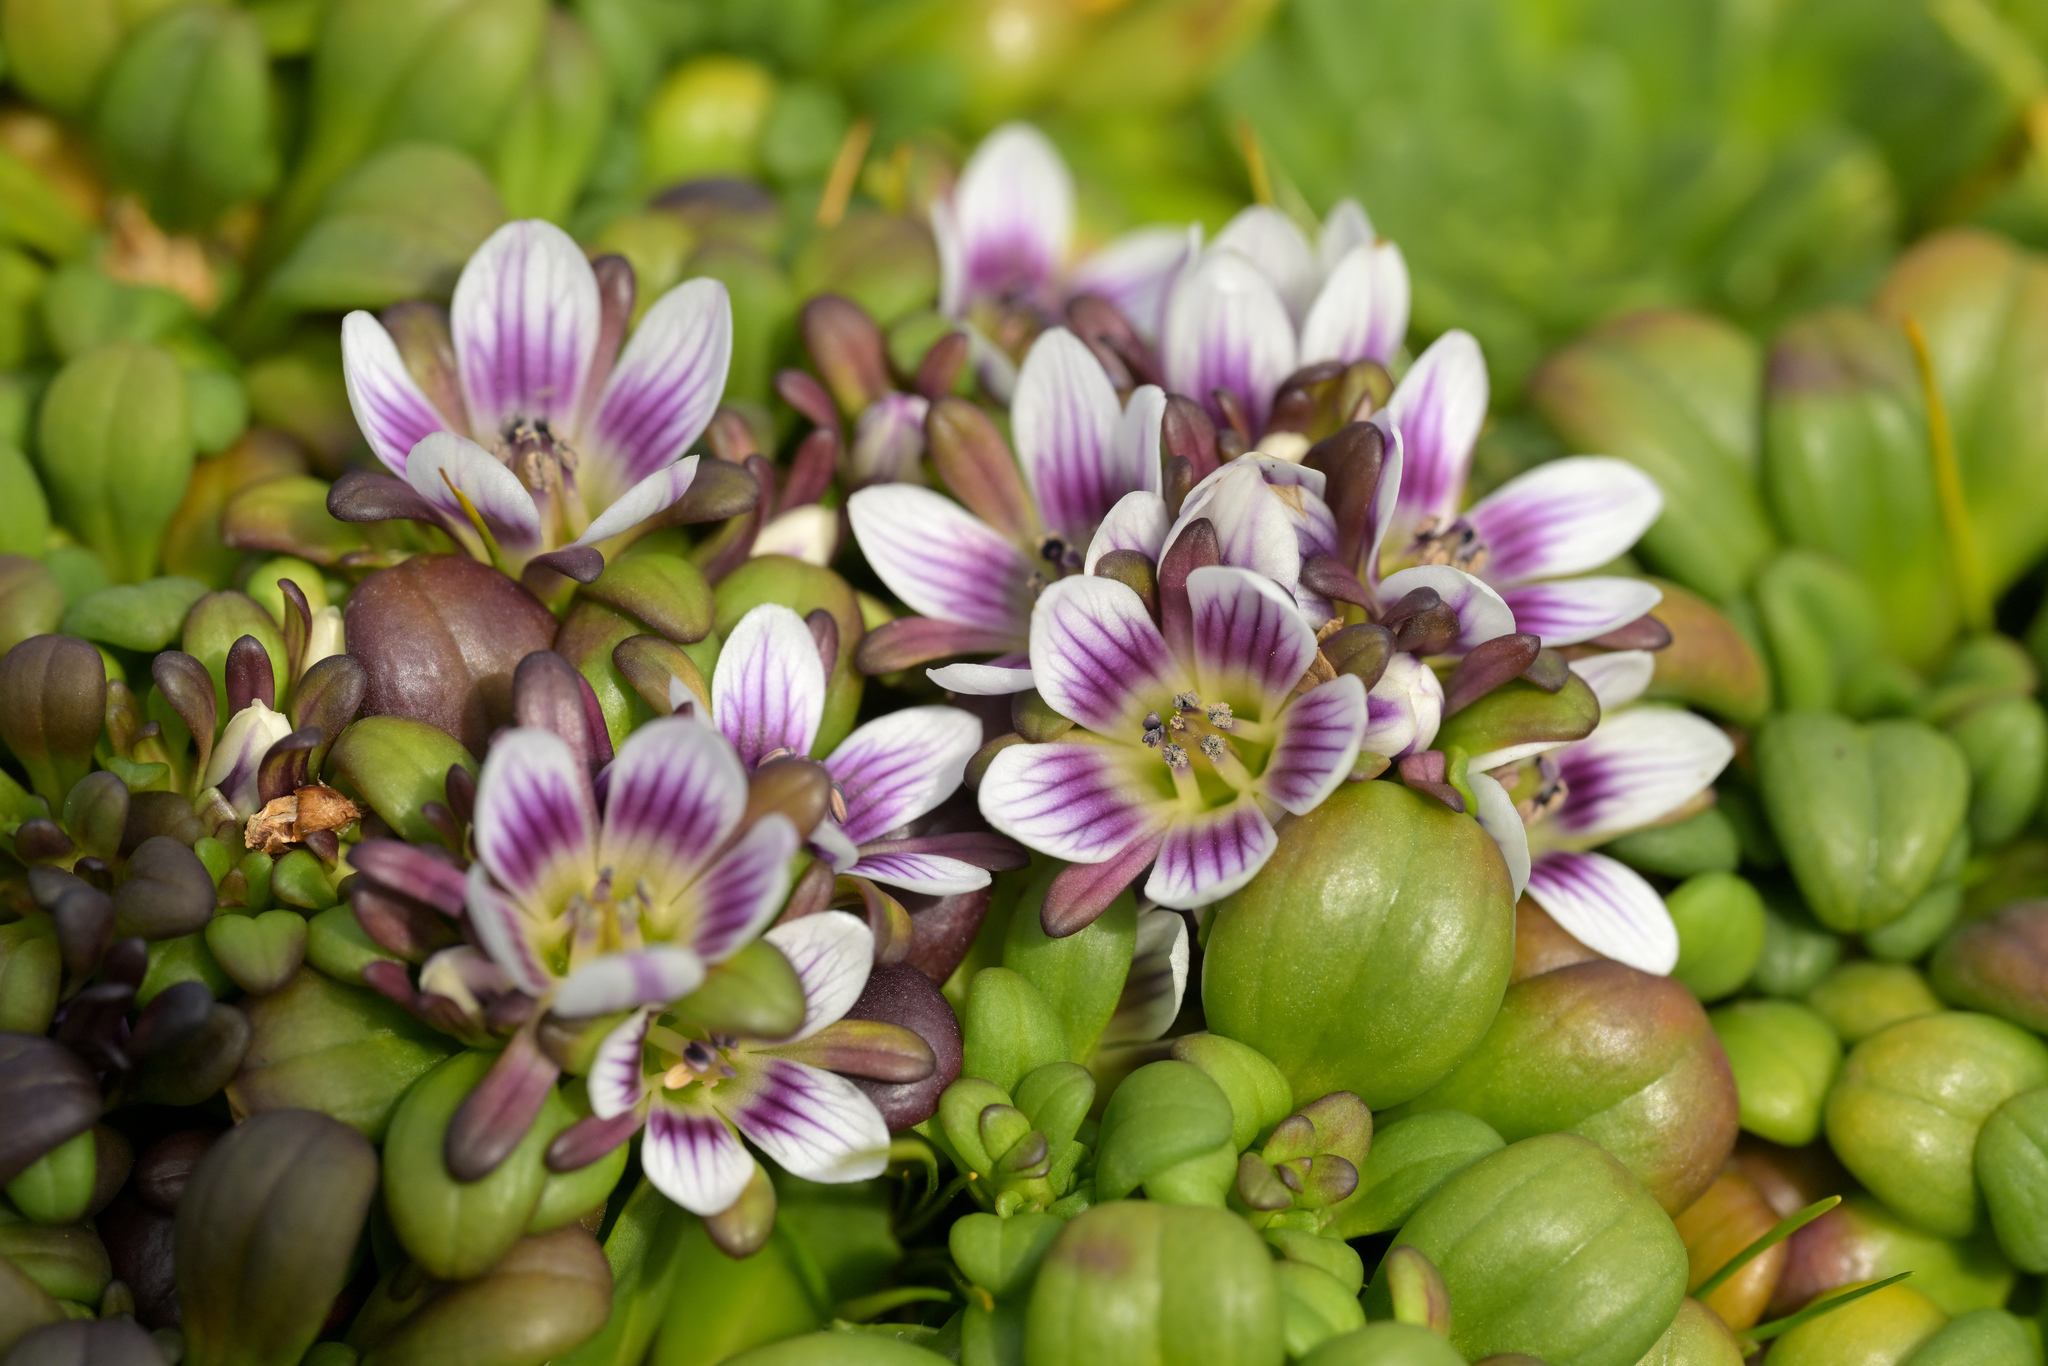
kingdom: Plantae
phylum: Tracheophyta
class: Magnoliopsida
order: Gentianales
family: Gentianaceae
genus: Gentianella
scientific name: Gentianella cerina
